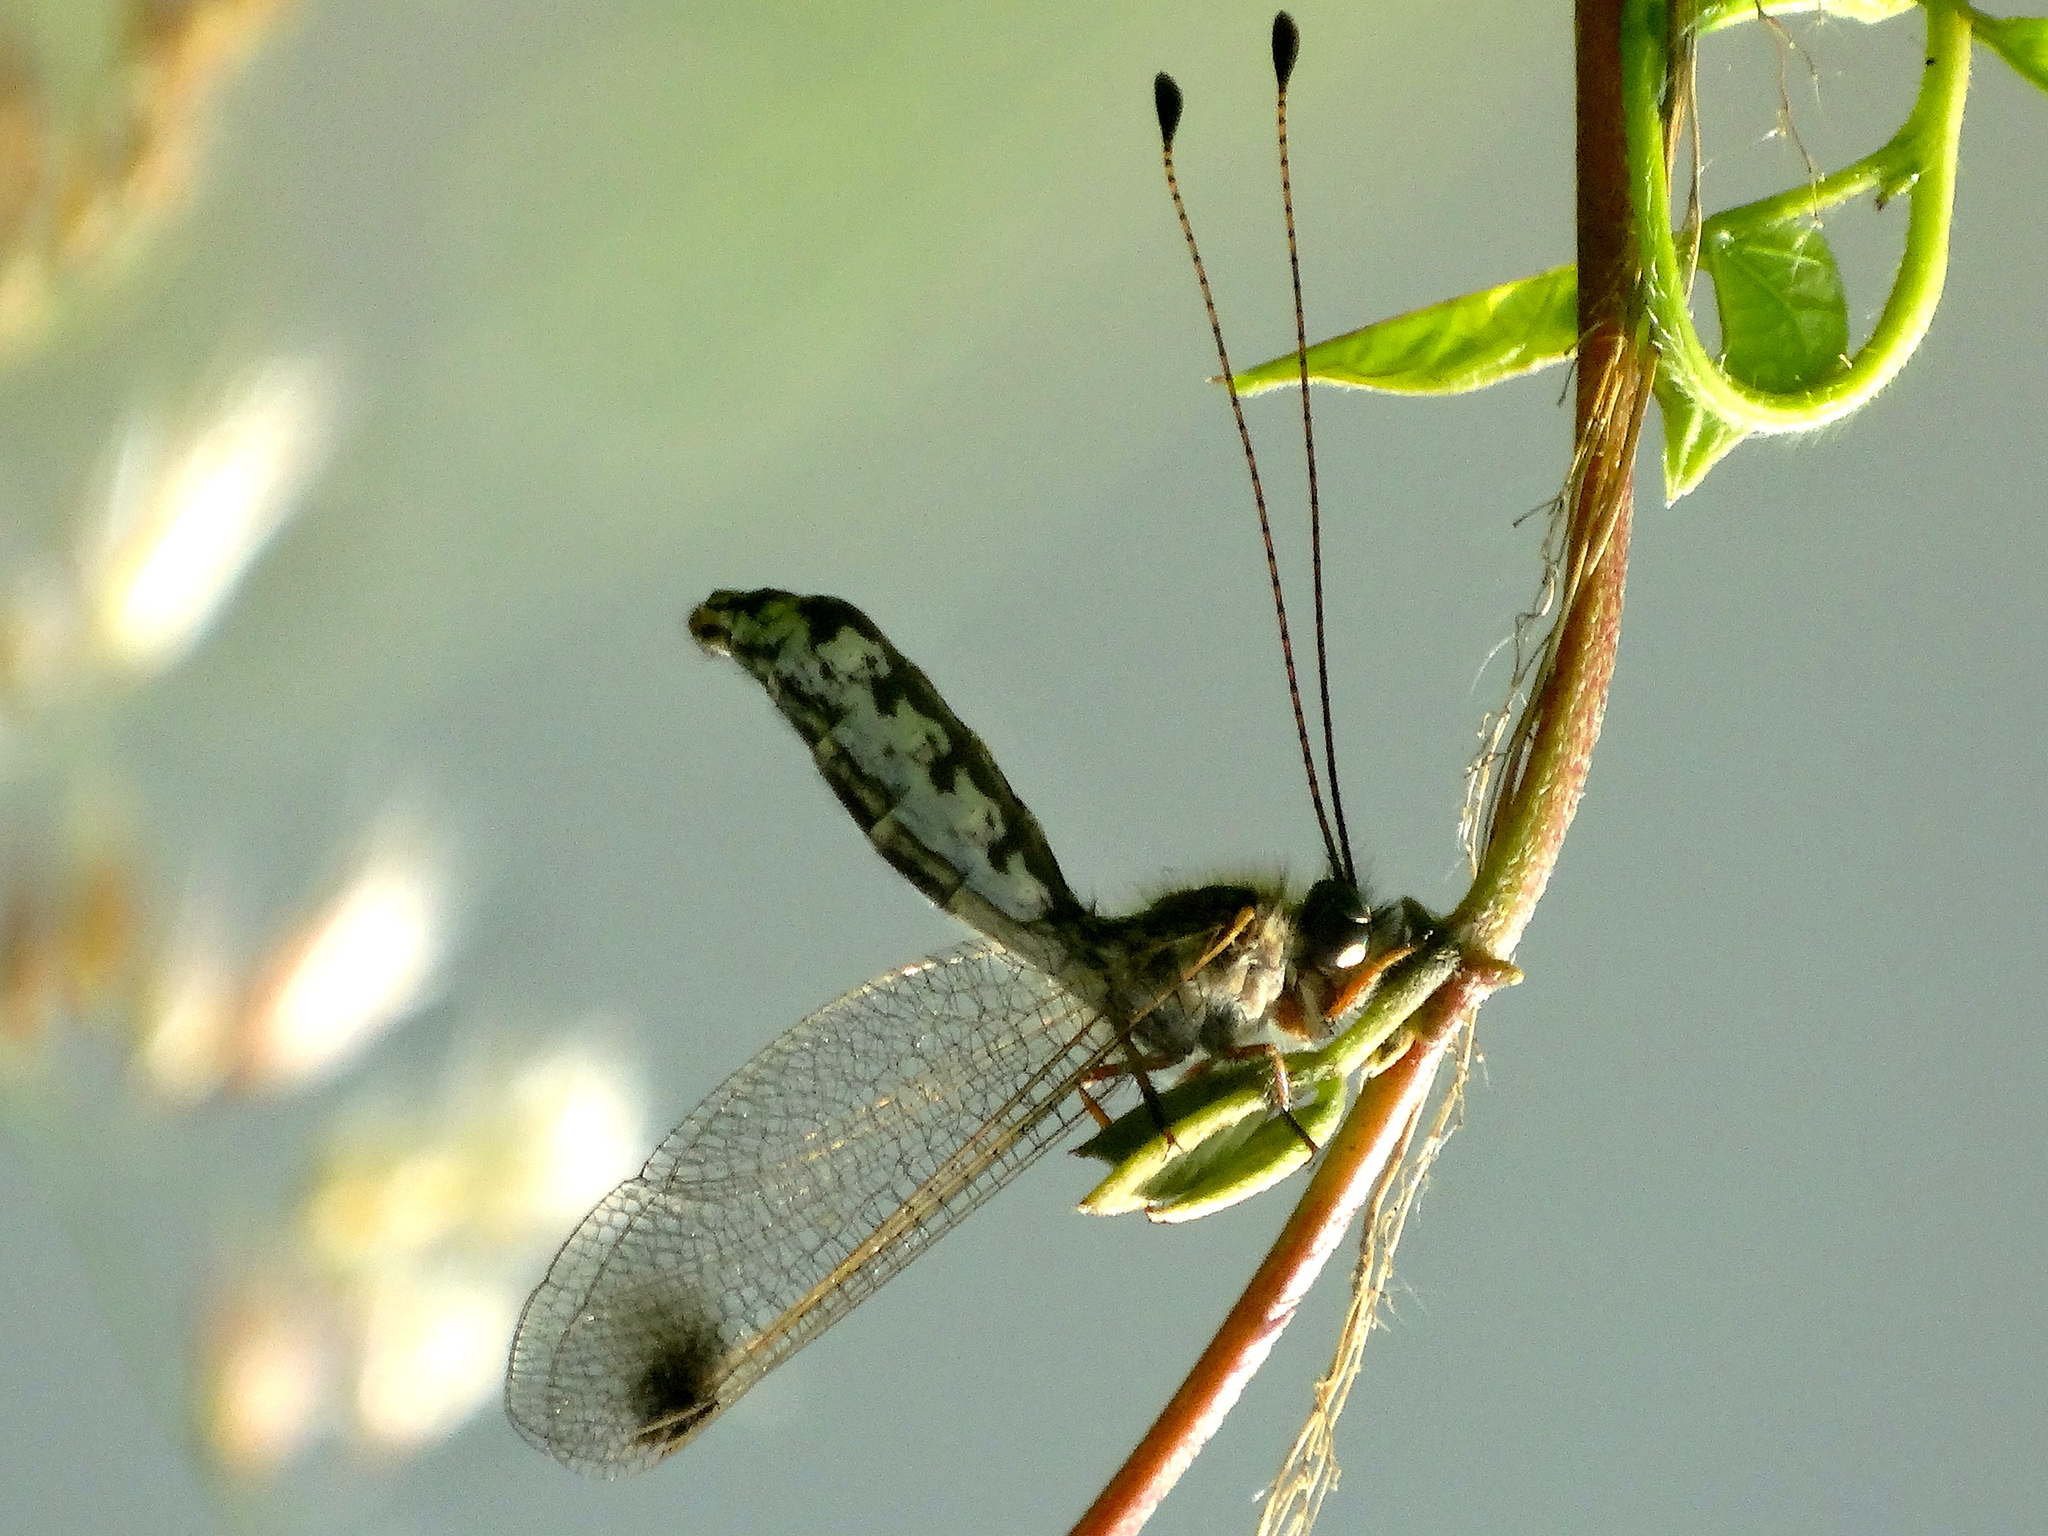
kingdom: Animalia
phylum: Arthropoda
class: Insecta
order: Neuroptera
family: Ascalaphidae
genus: Ululodes
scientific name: Ululodes
